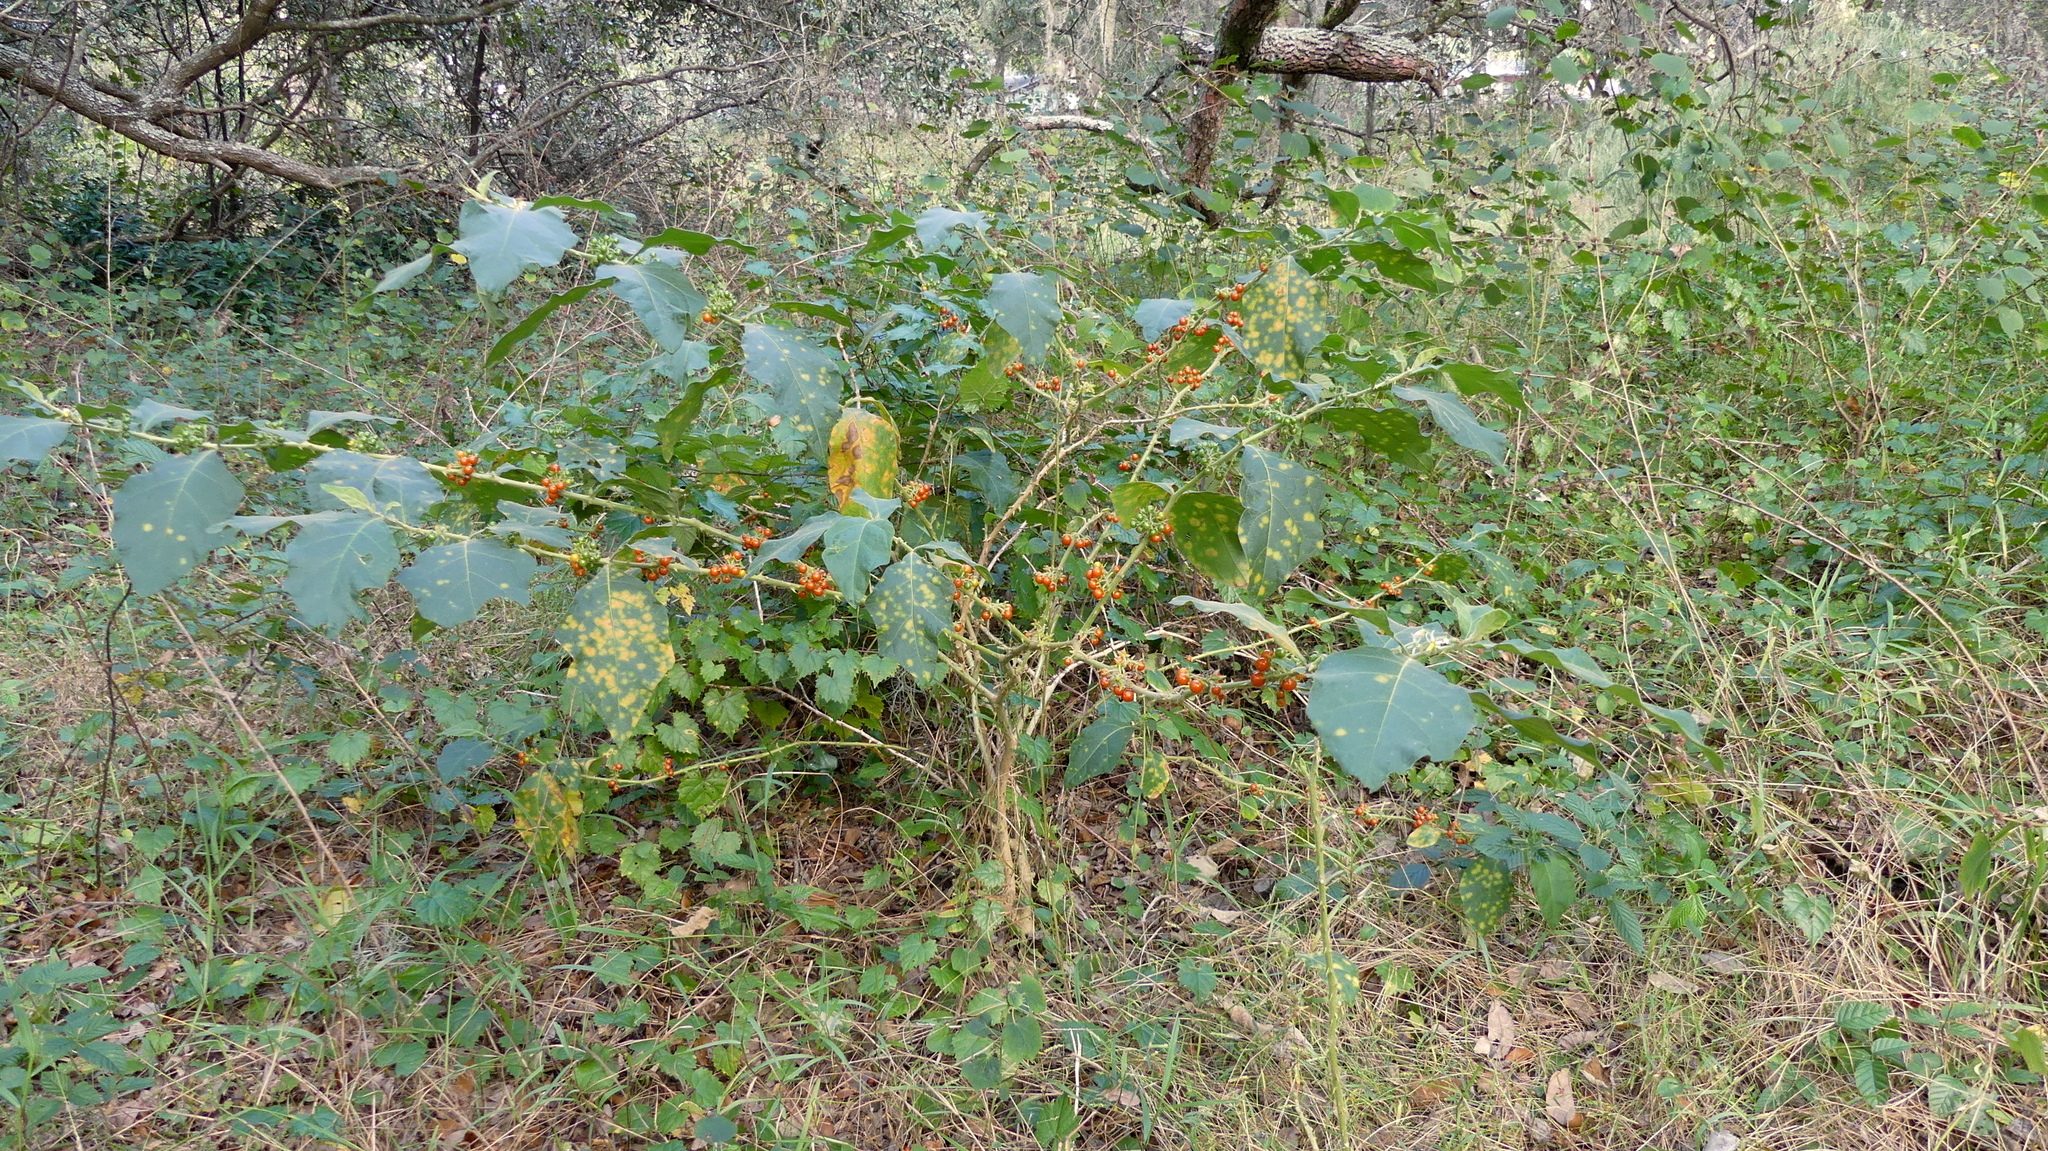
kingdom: Plantae
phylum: Tracheophyta
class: Magnoliopsida
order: Solanales
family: Solanaceae
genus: Solanum
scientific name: Solanum jamaicense
